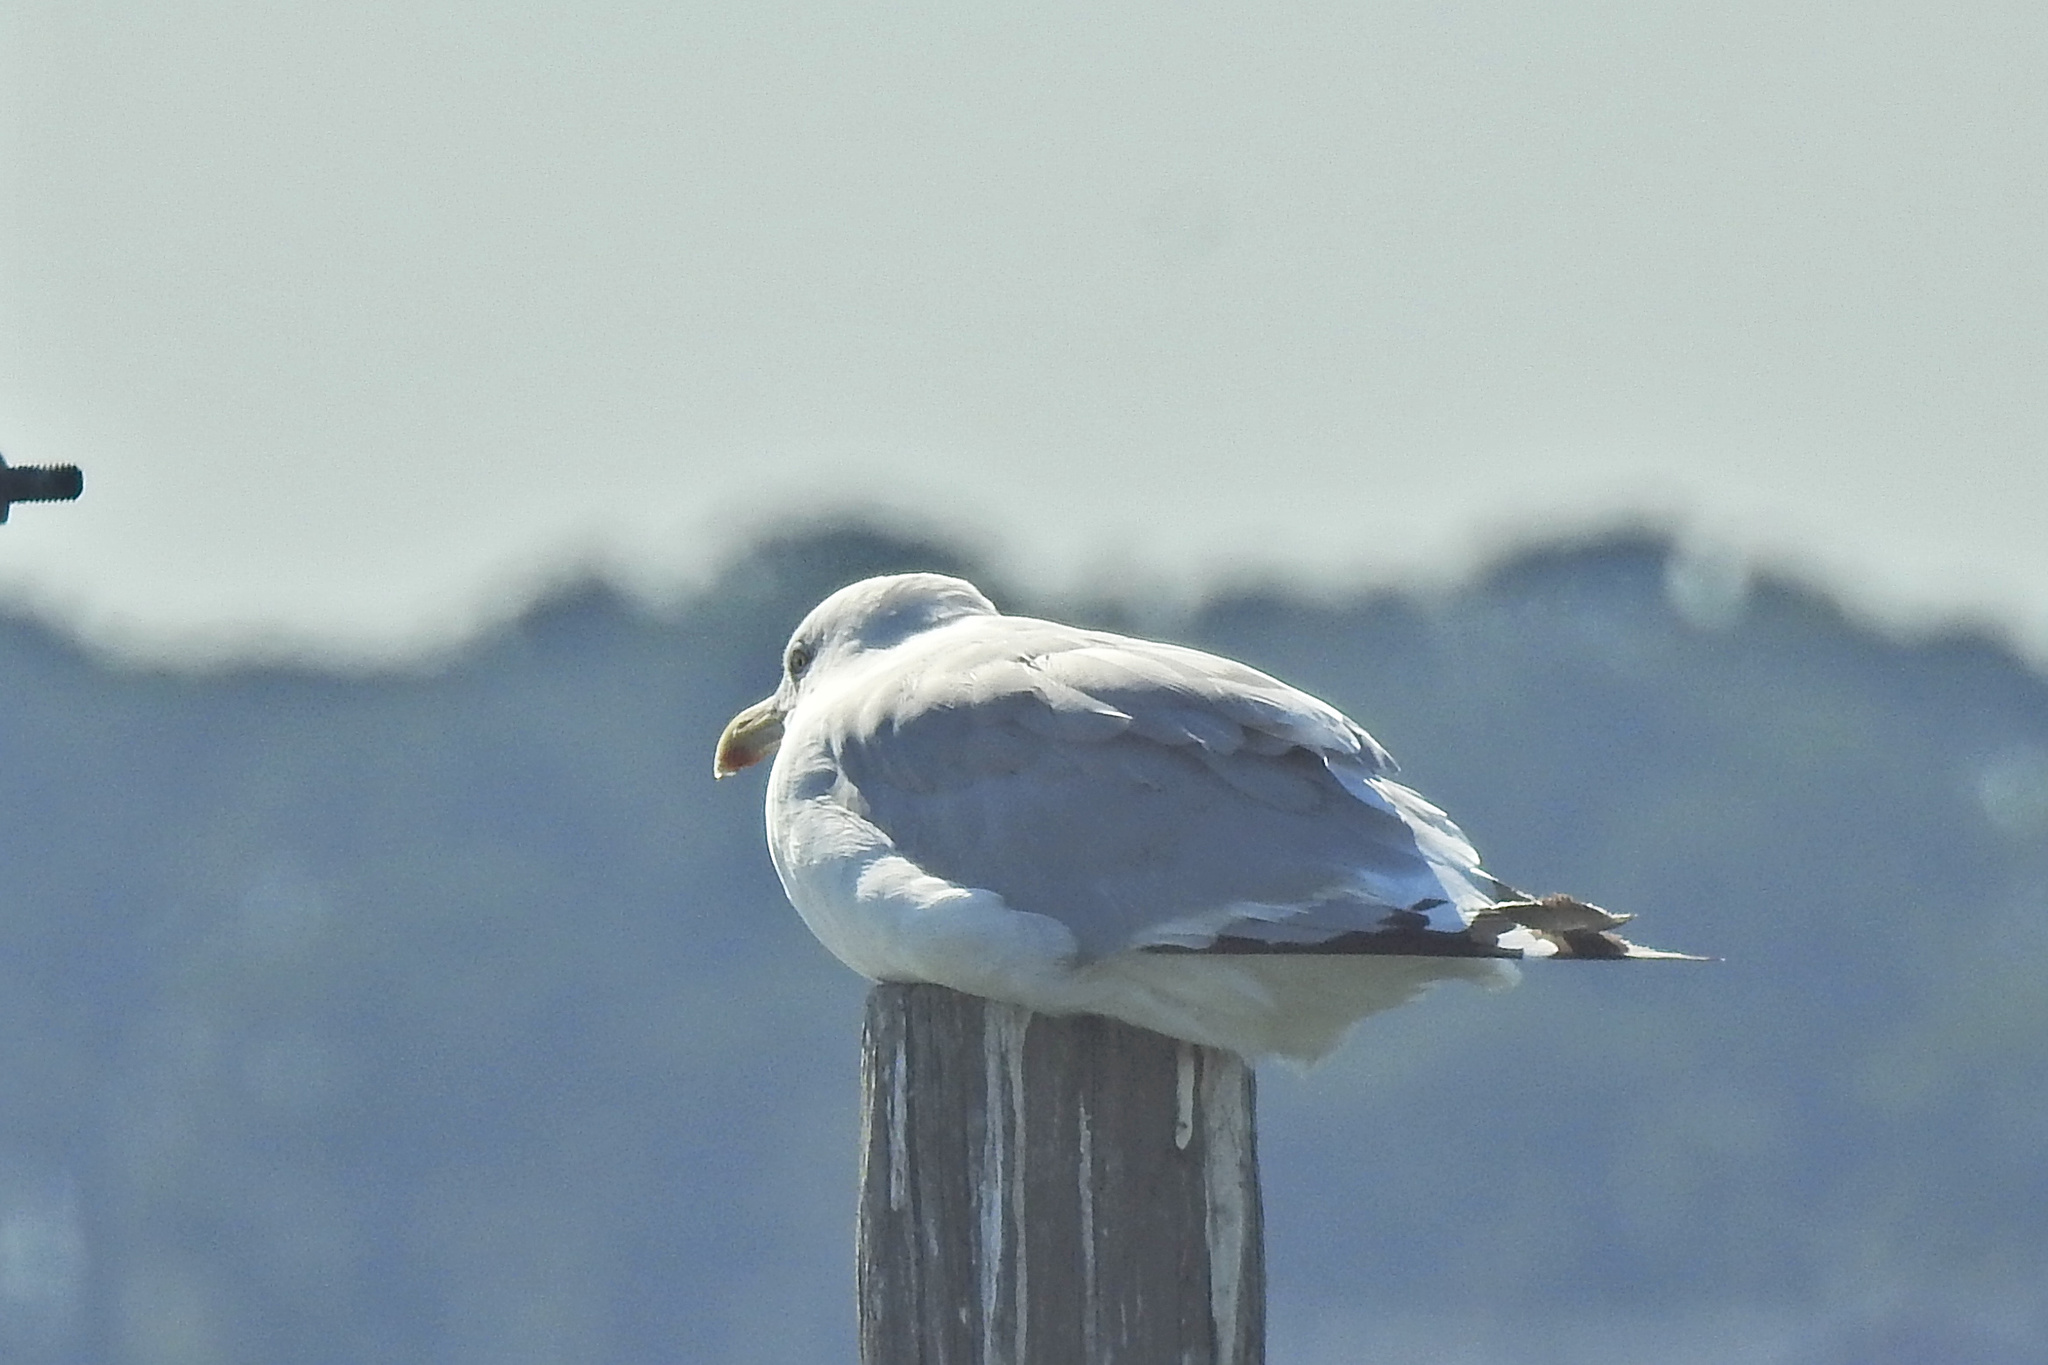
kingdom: Animalia
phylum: Chordata
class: Aves
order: Charadriiformes
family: Laridae
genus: Larus
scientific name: Larus argentatus
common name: Herring gull
